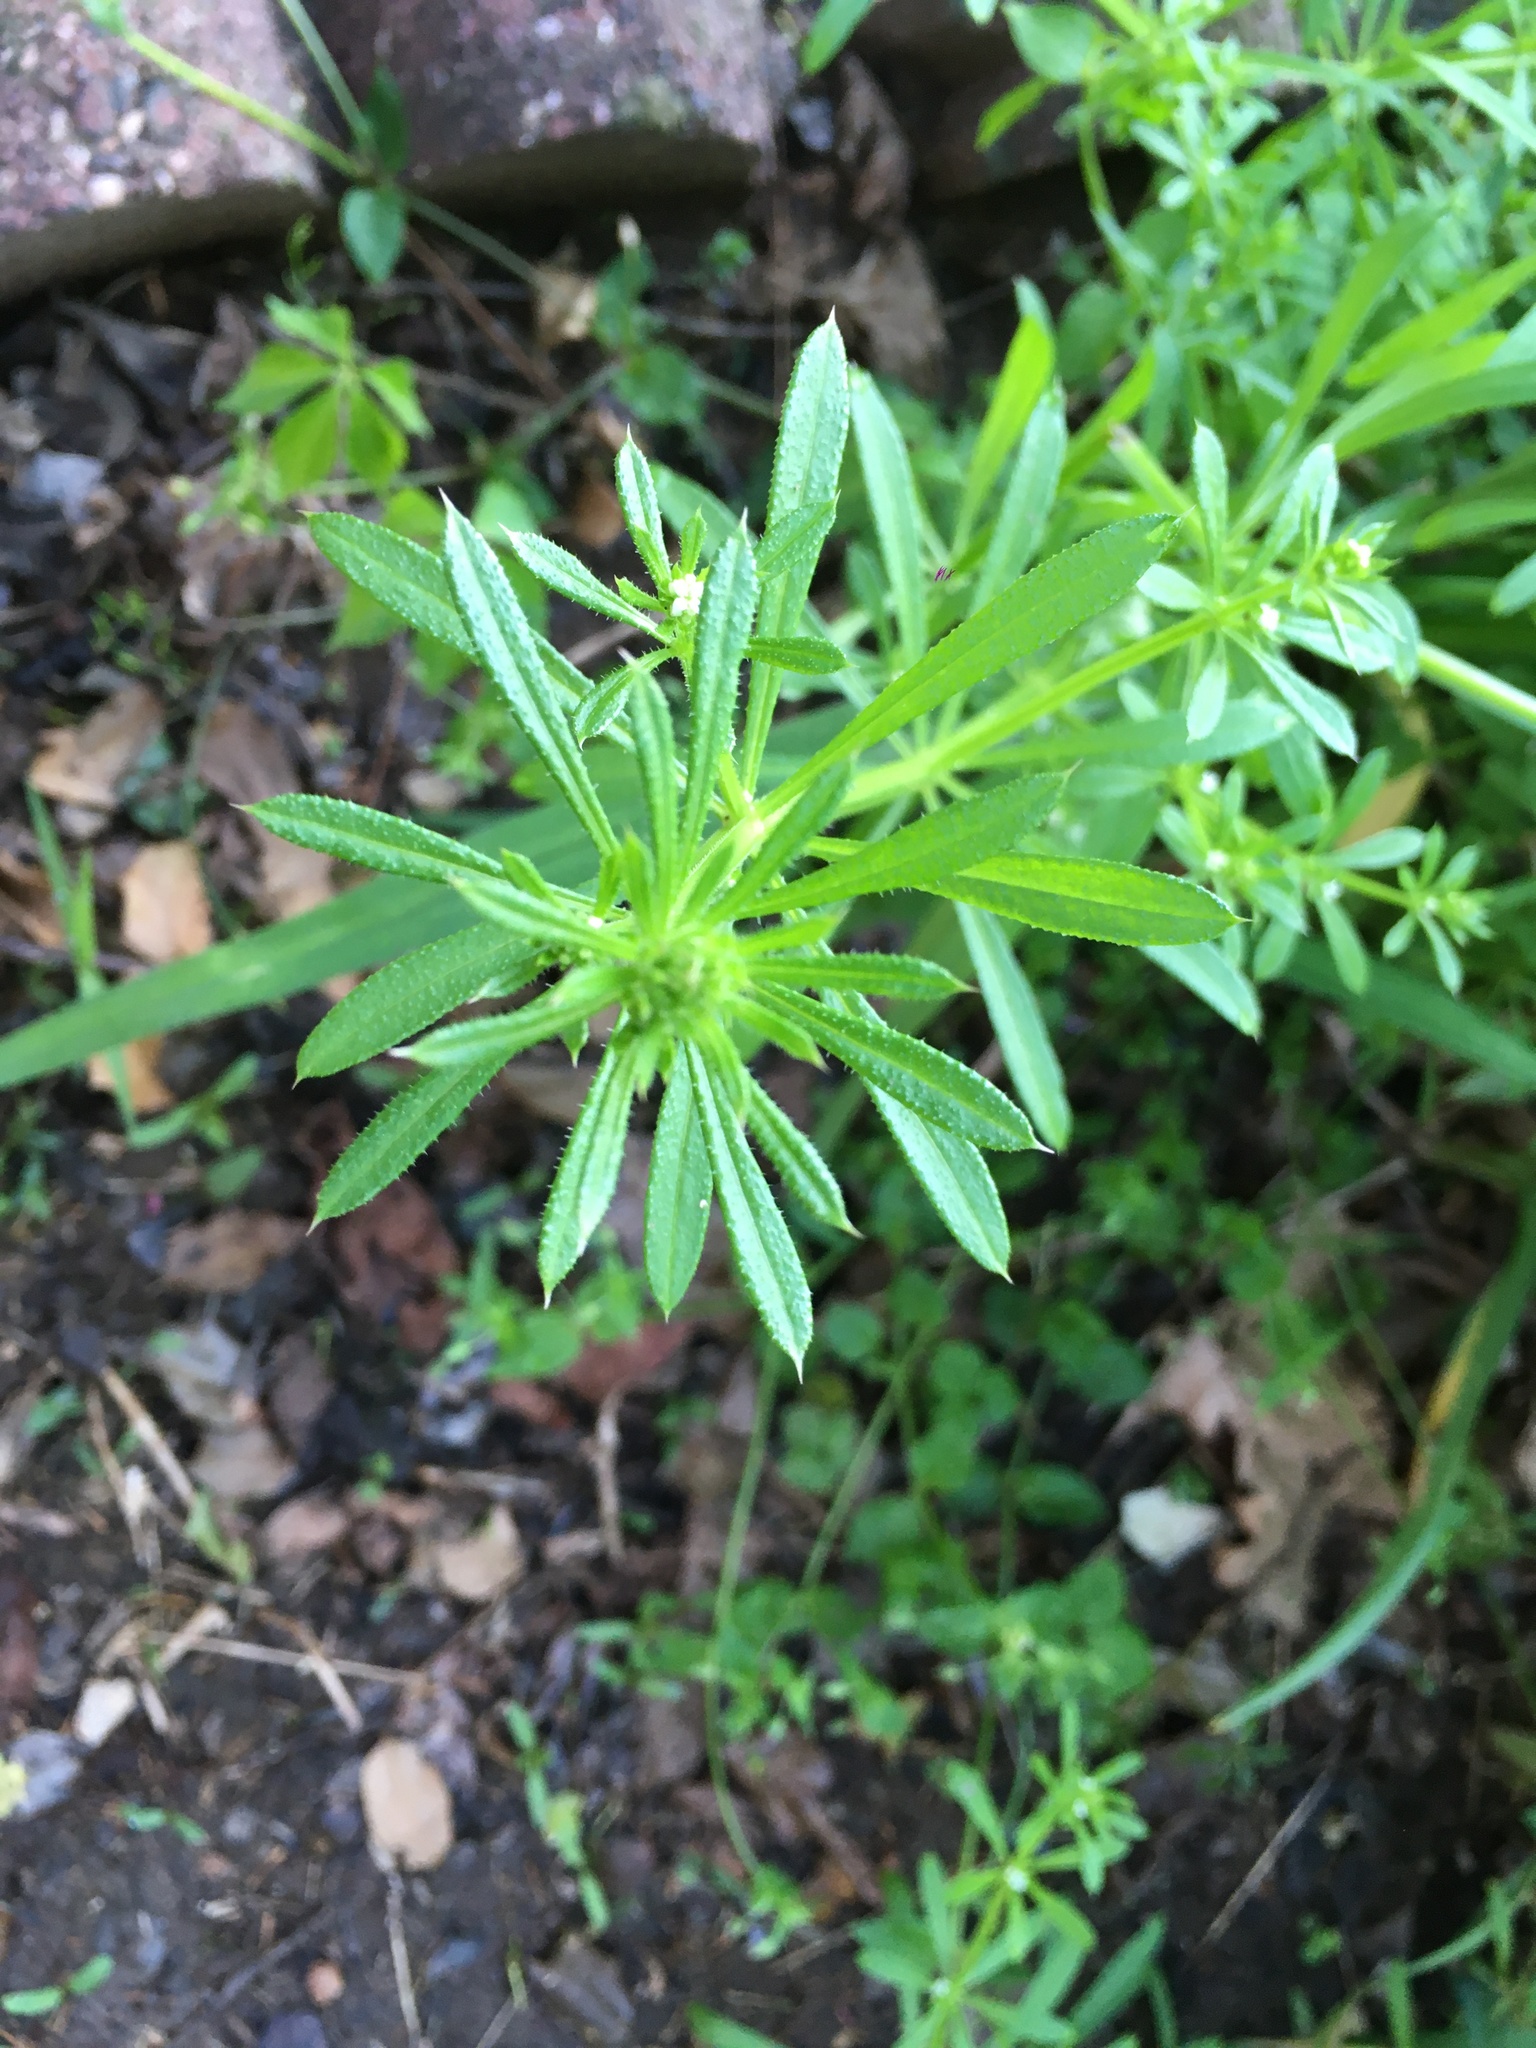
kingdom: Plantae
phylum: Tracheophyta
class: Magnoliopsida
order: Gentianales
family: Rubiaceae
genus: Galium
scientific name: Galium aparine
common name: Cleavers
